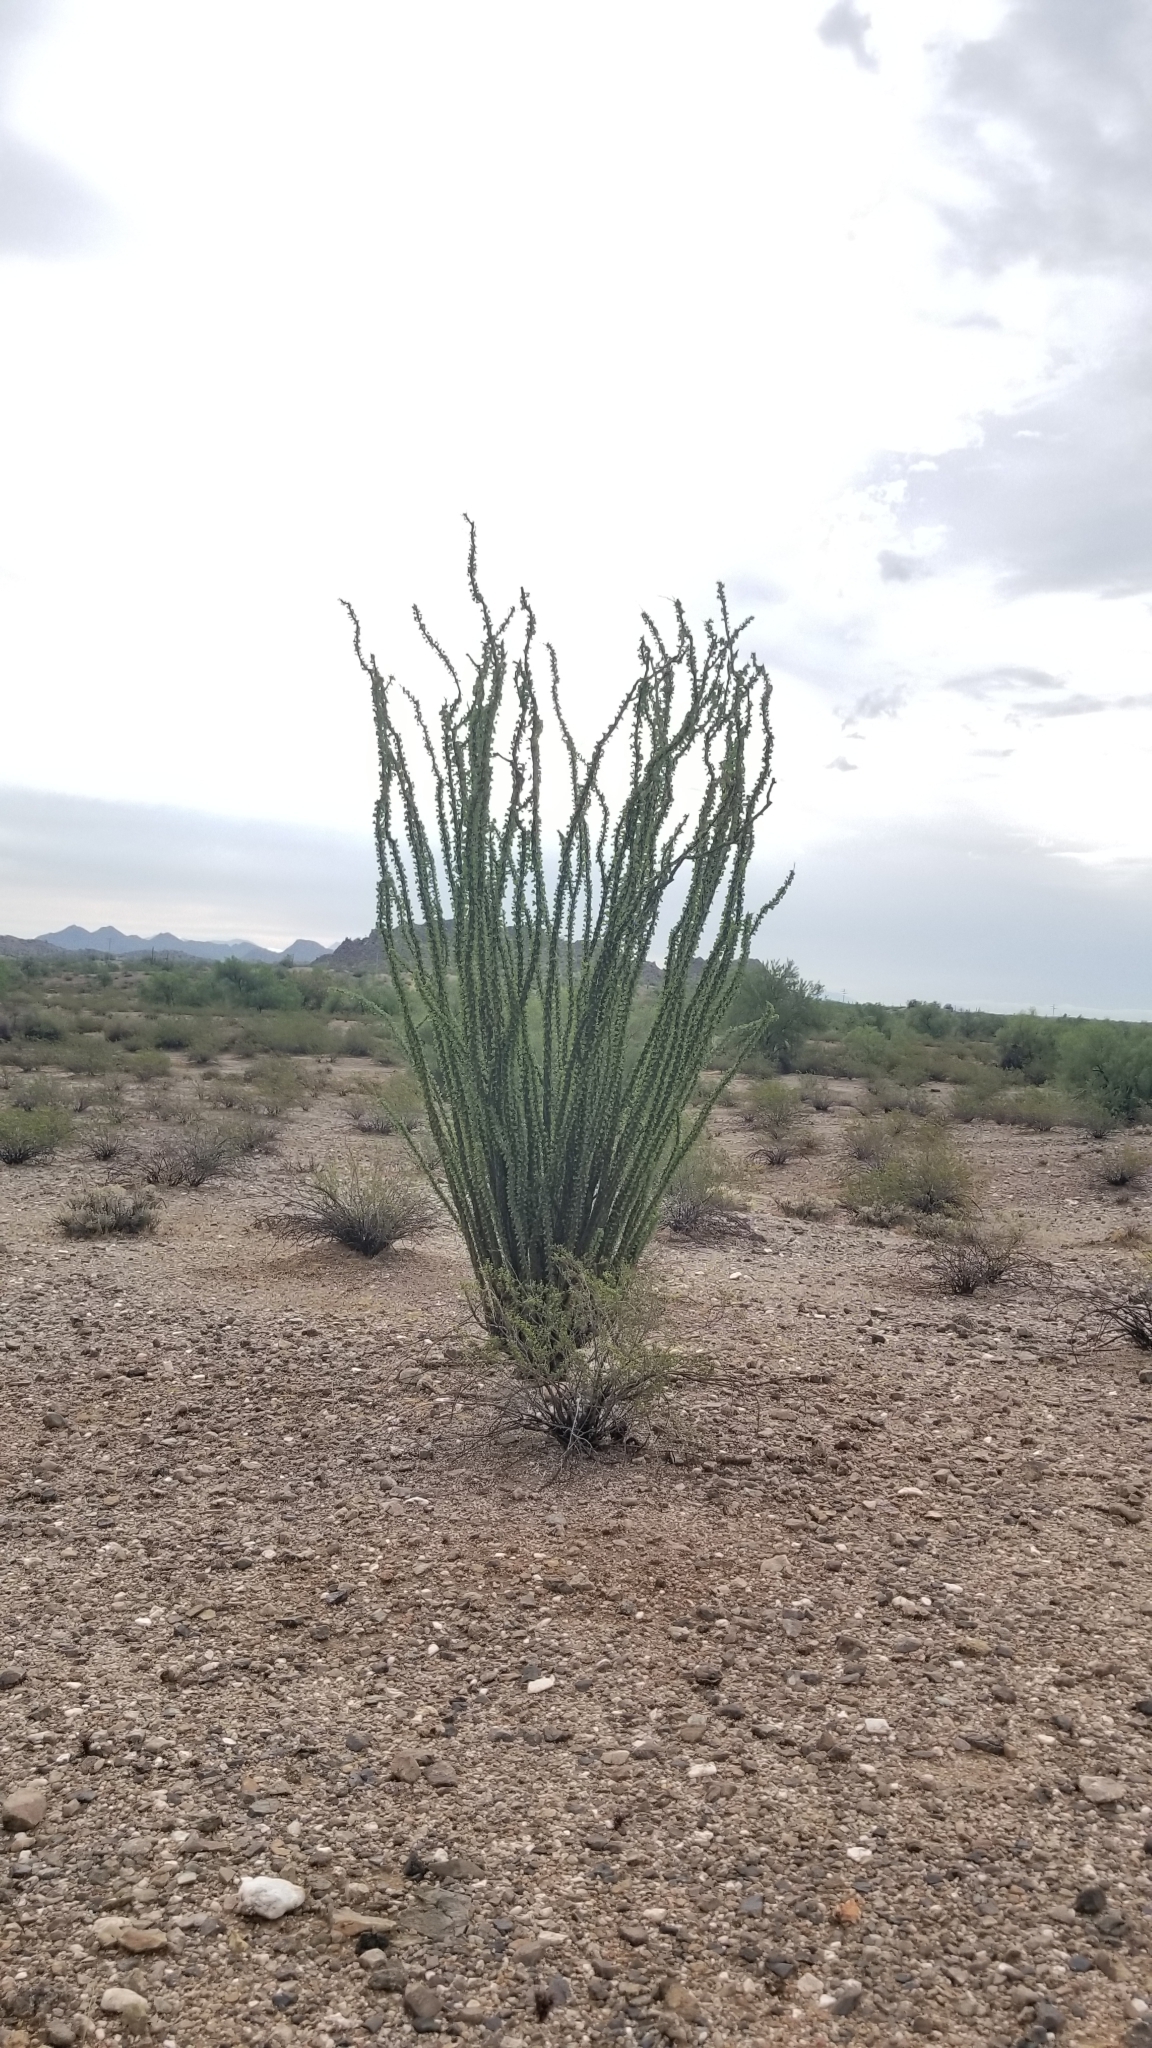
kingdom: Plantae
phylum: Tracheophyta
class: Magnoliopsida
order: Ericales
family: Fouquieriaceae
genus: Fouquieria
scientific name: Fouquieria splendens
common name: Vine-cactus
